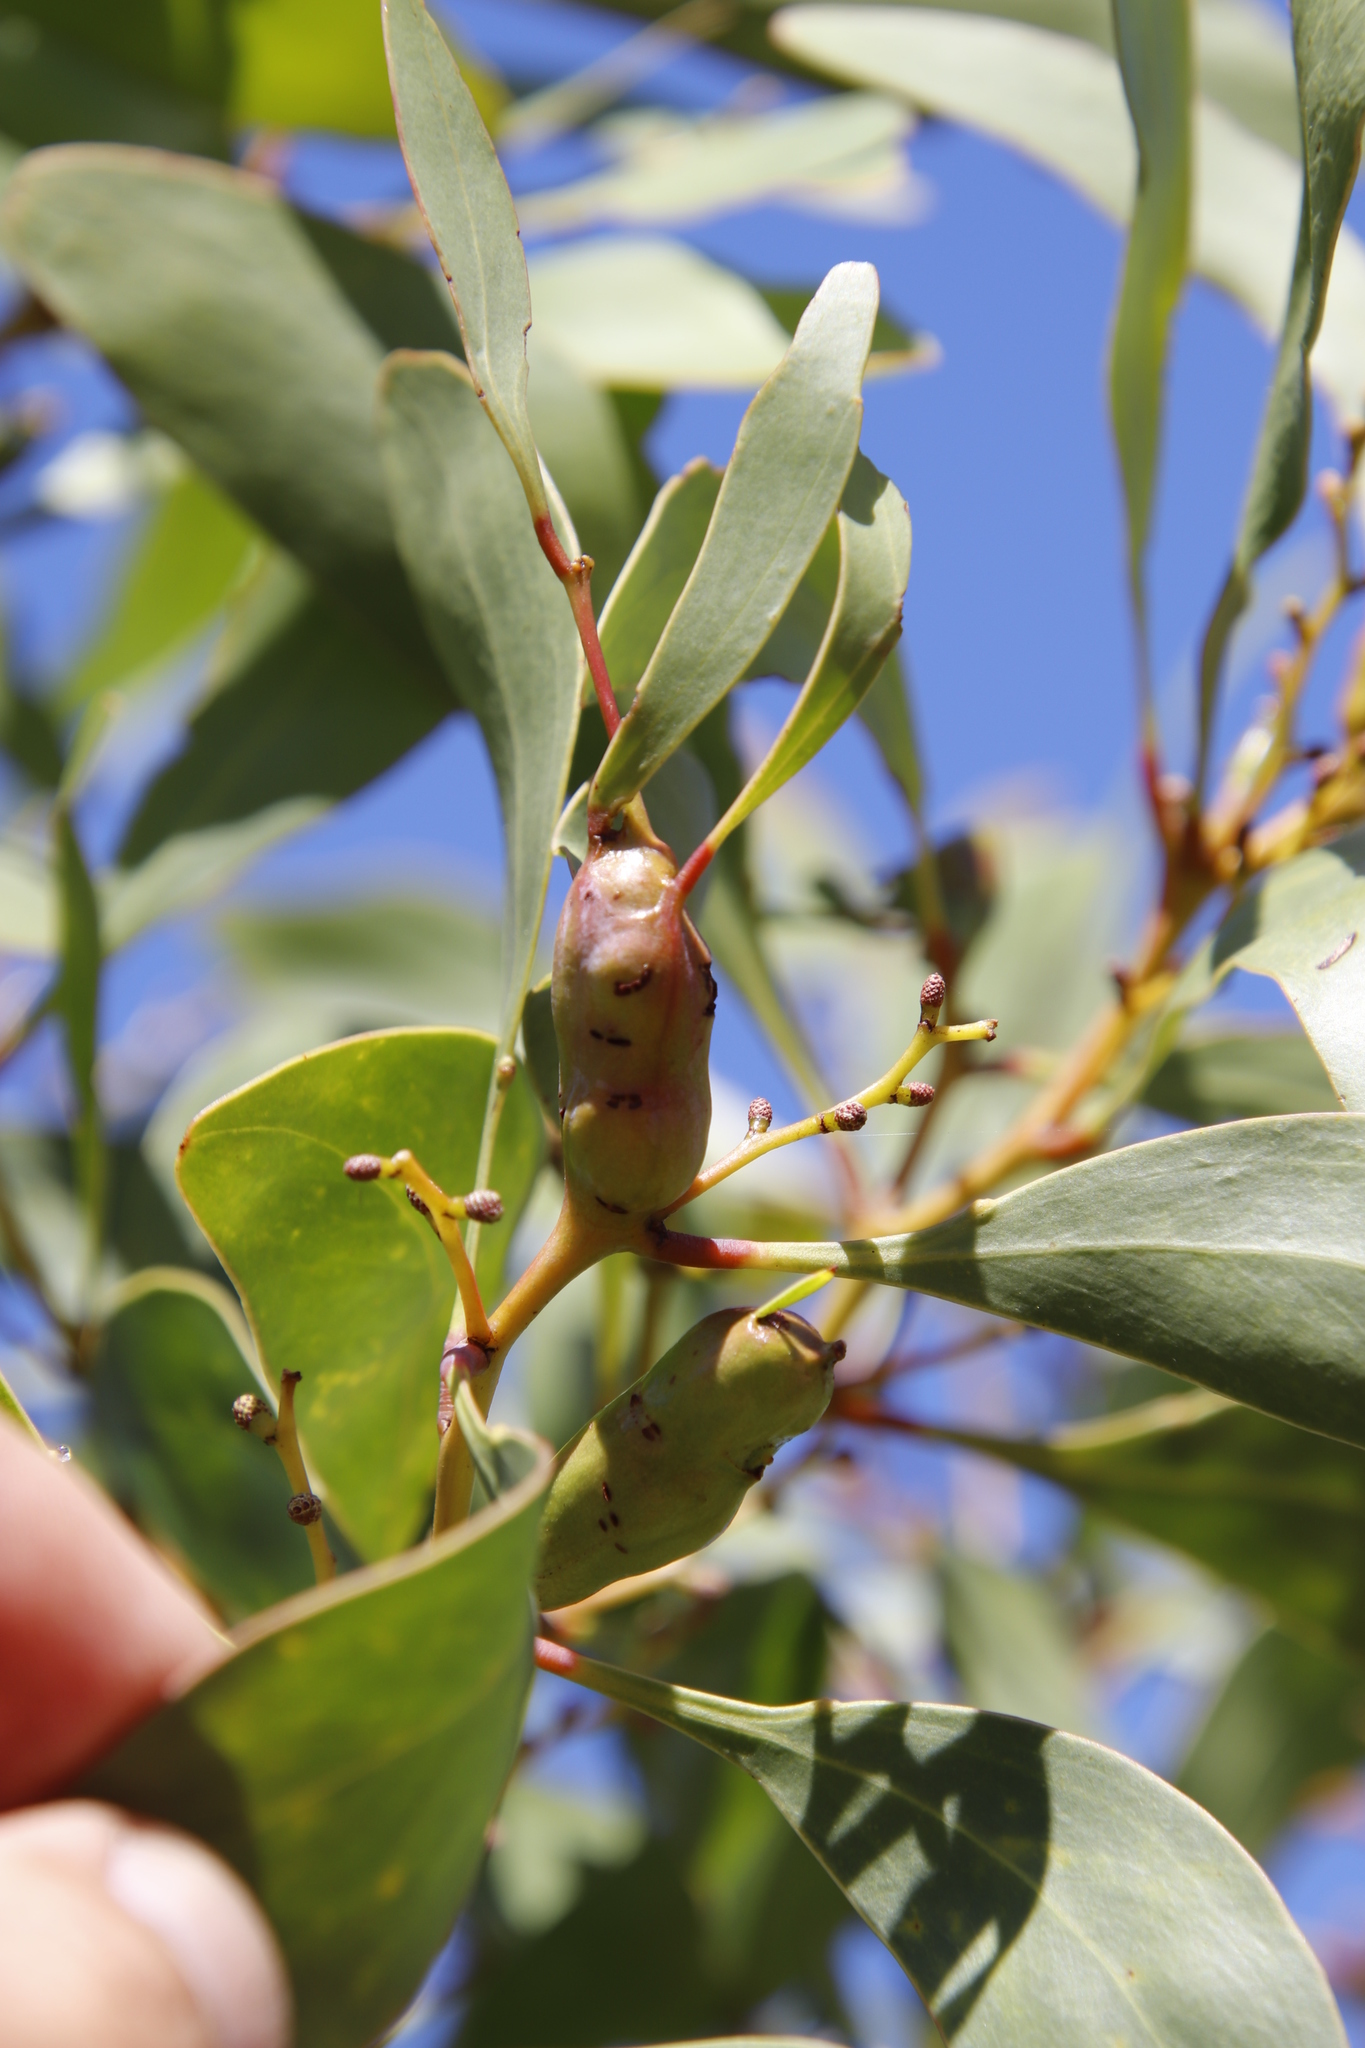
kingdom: Plantae
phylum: Tracheophyta
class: Magnoliopsida
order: Fabales
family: Fabaceae
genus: Acacia
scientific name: Acacia pycnantha
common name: Golden wattle
